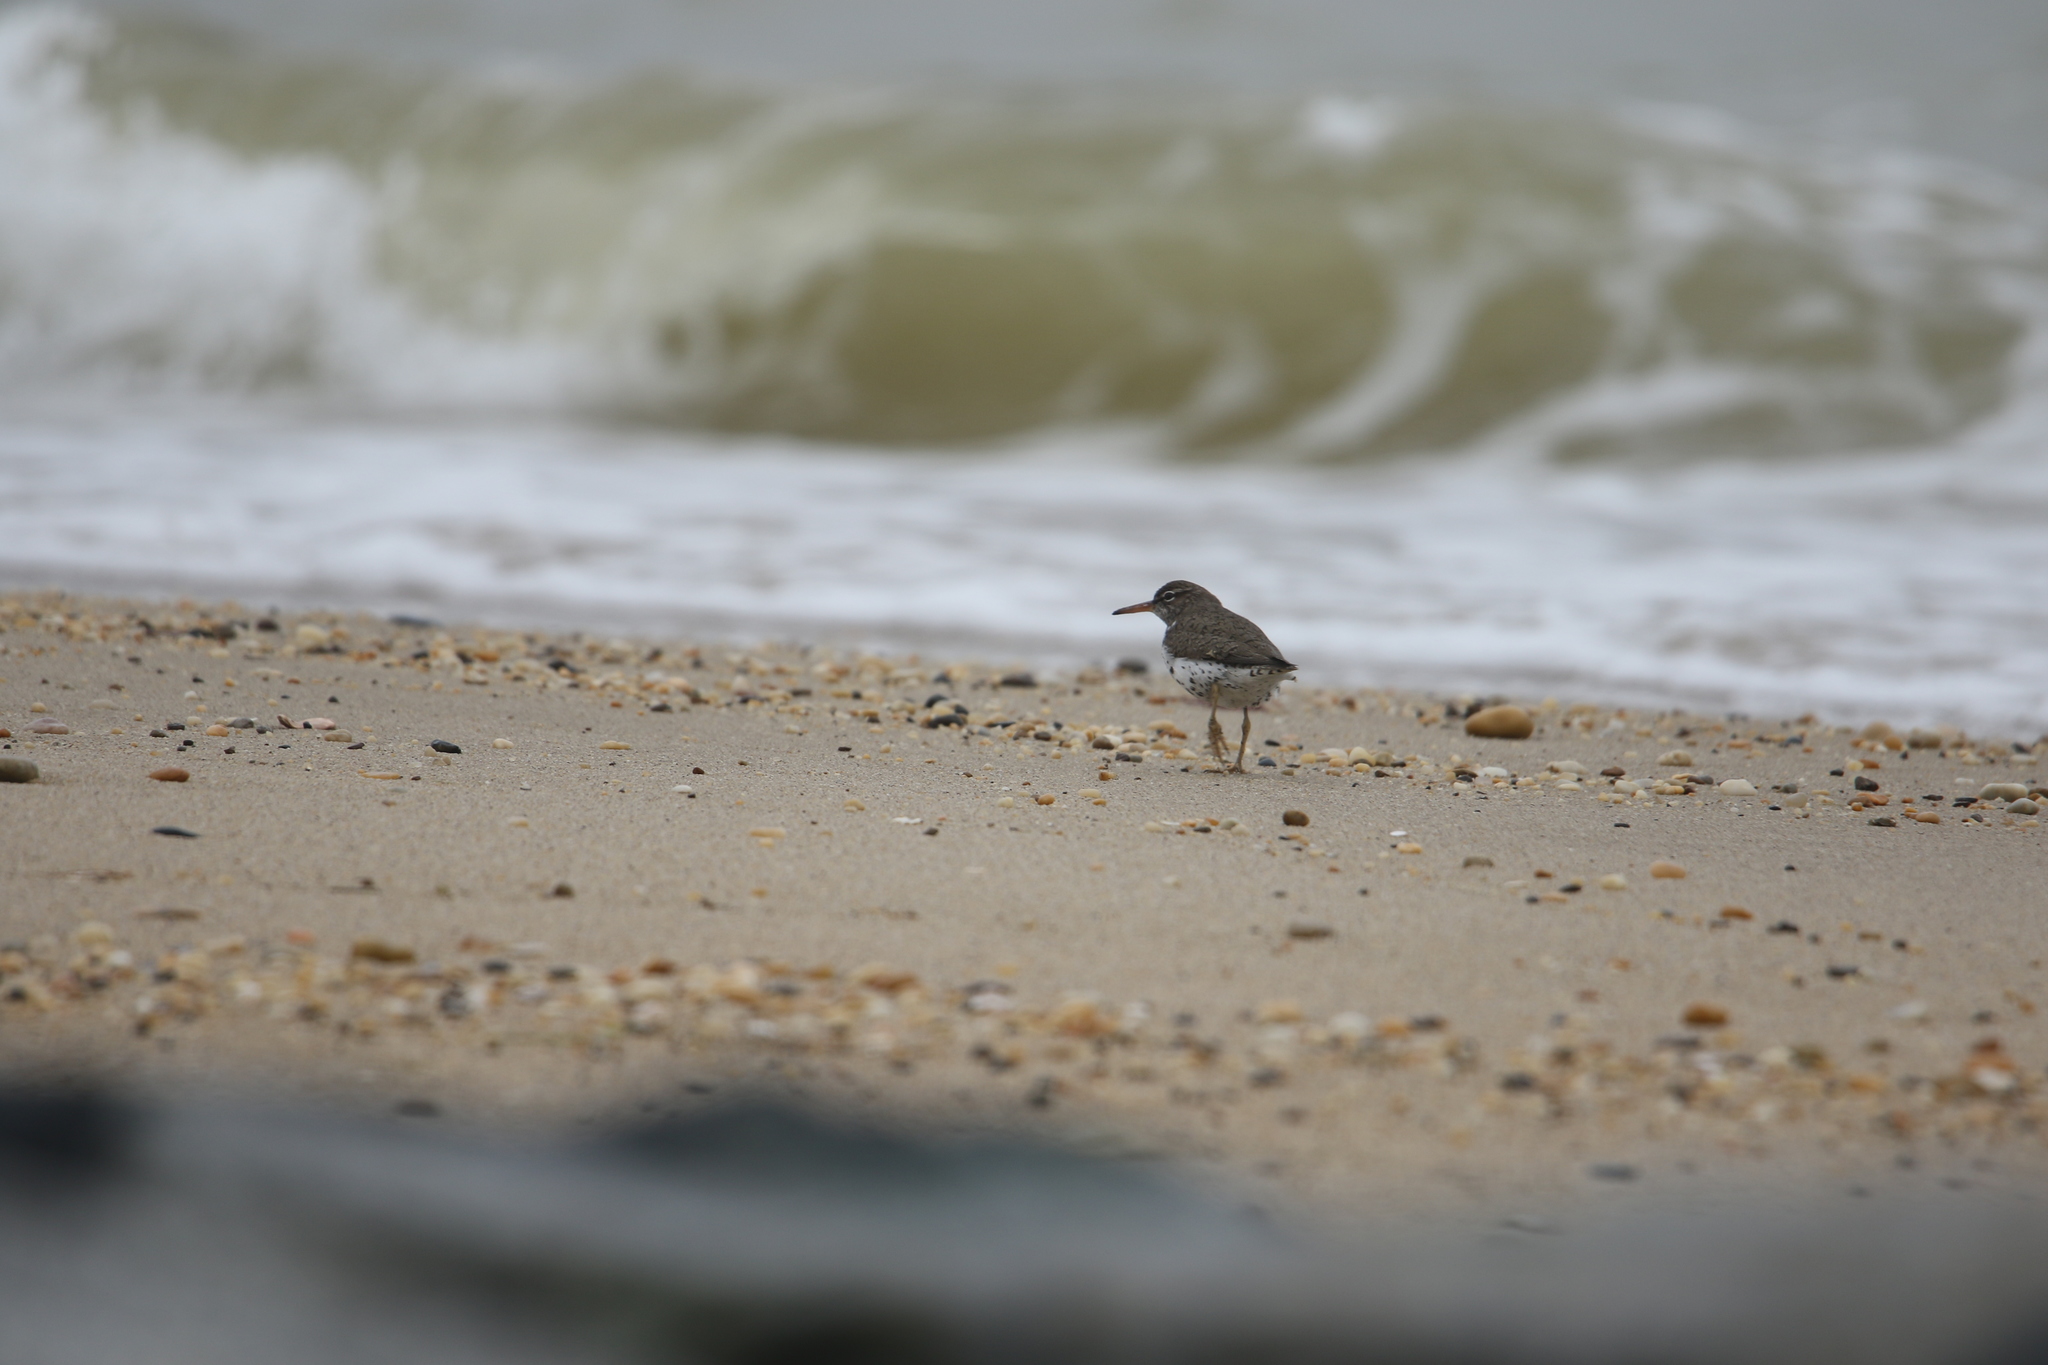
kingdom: Animalia
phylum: Chordata
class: Aves
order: Charadriiformes
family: Scolopacidae
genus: Actitis
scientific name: Actitis macularius
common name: Spotted sandpiper
